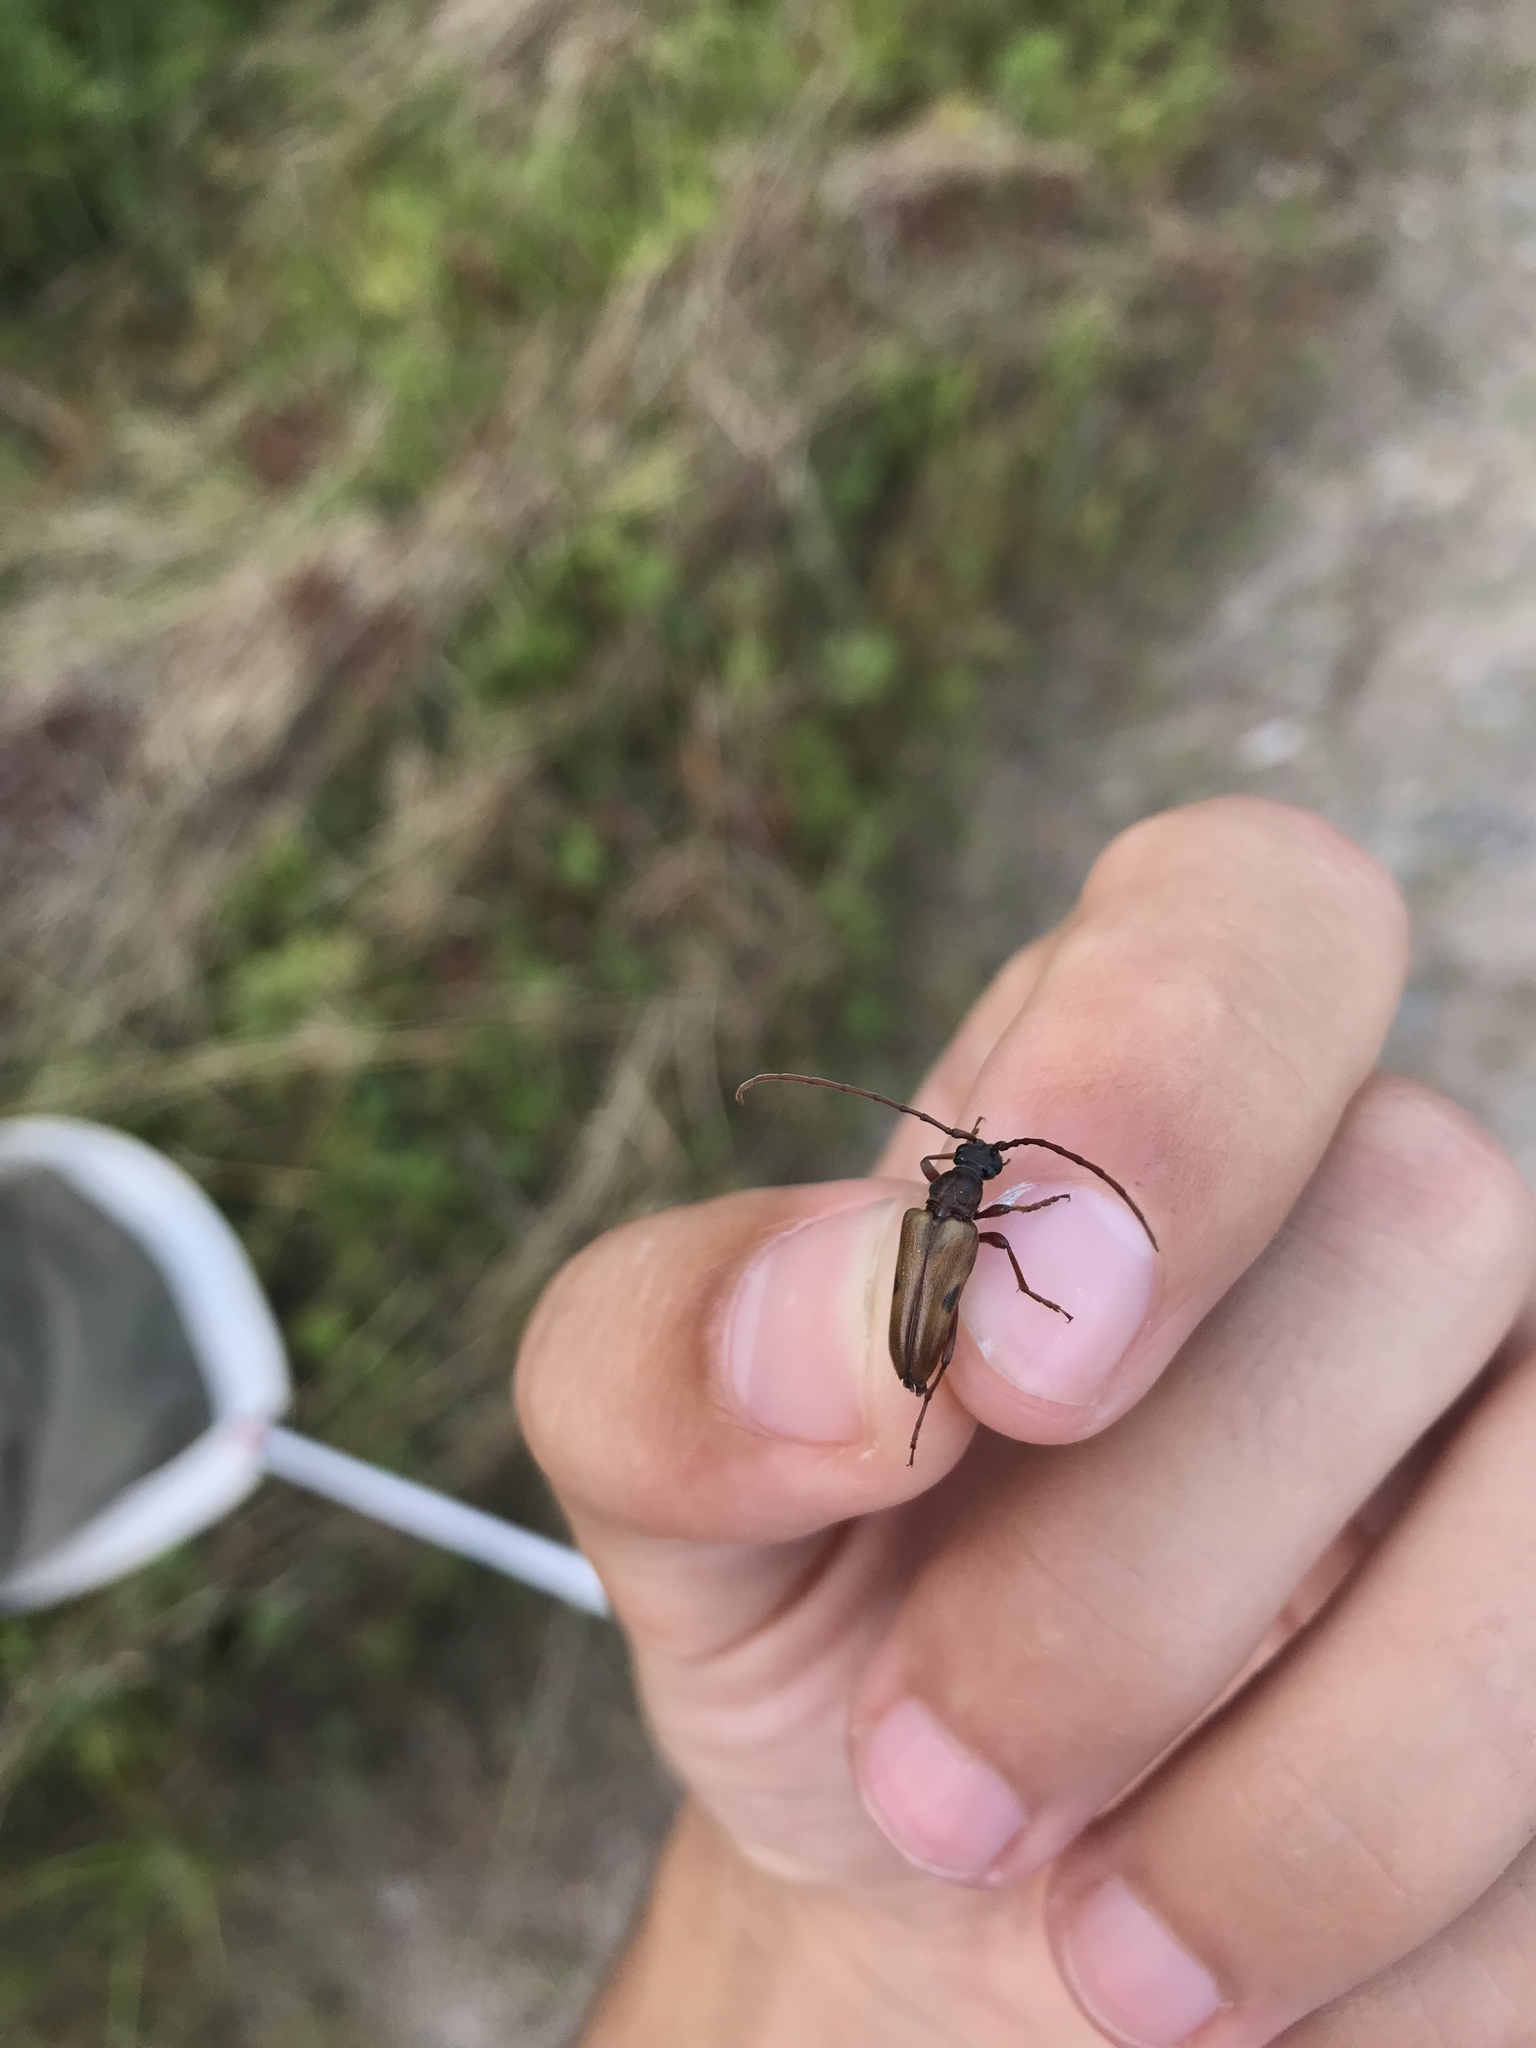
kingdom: Animalia
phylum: Arthropoda
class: Insecta
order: Coleoptera
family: Cerambycidae
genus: Lepturopsis
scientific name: Lepturopsis biforis
